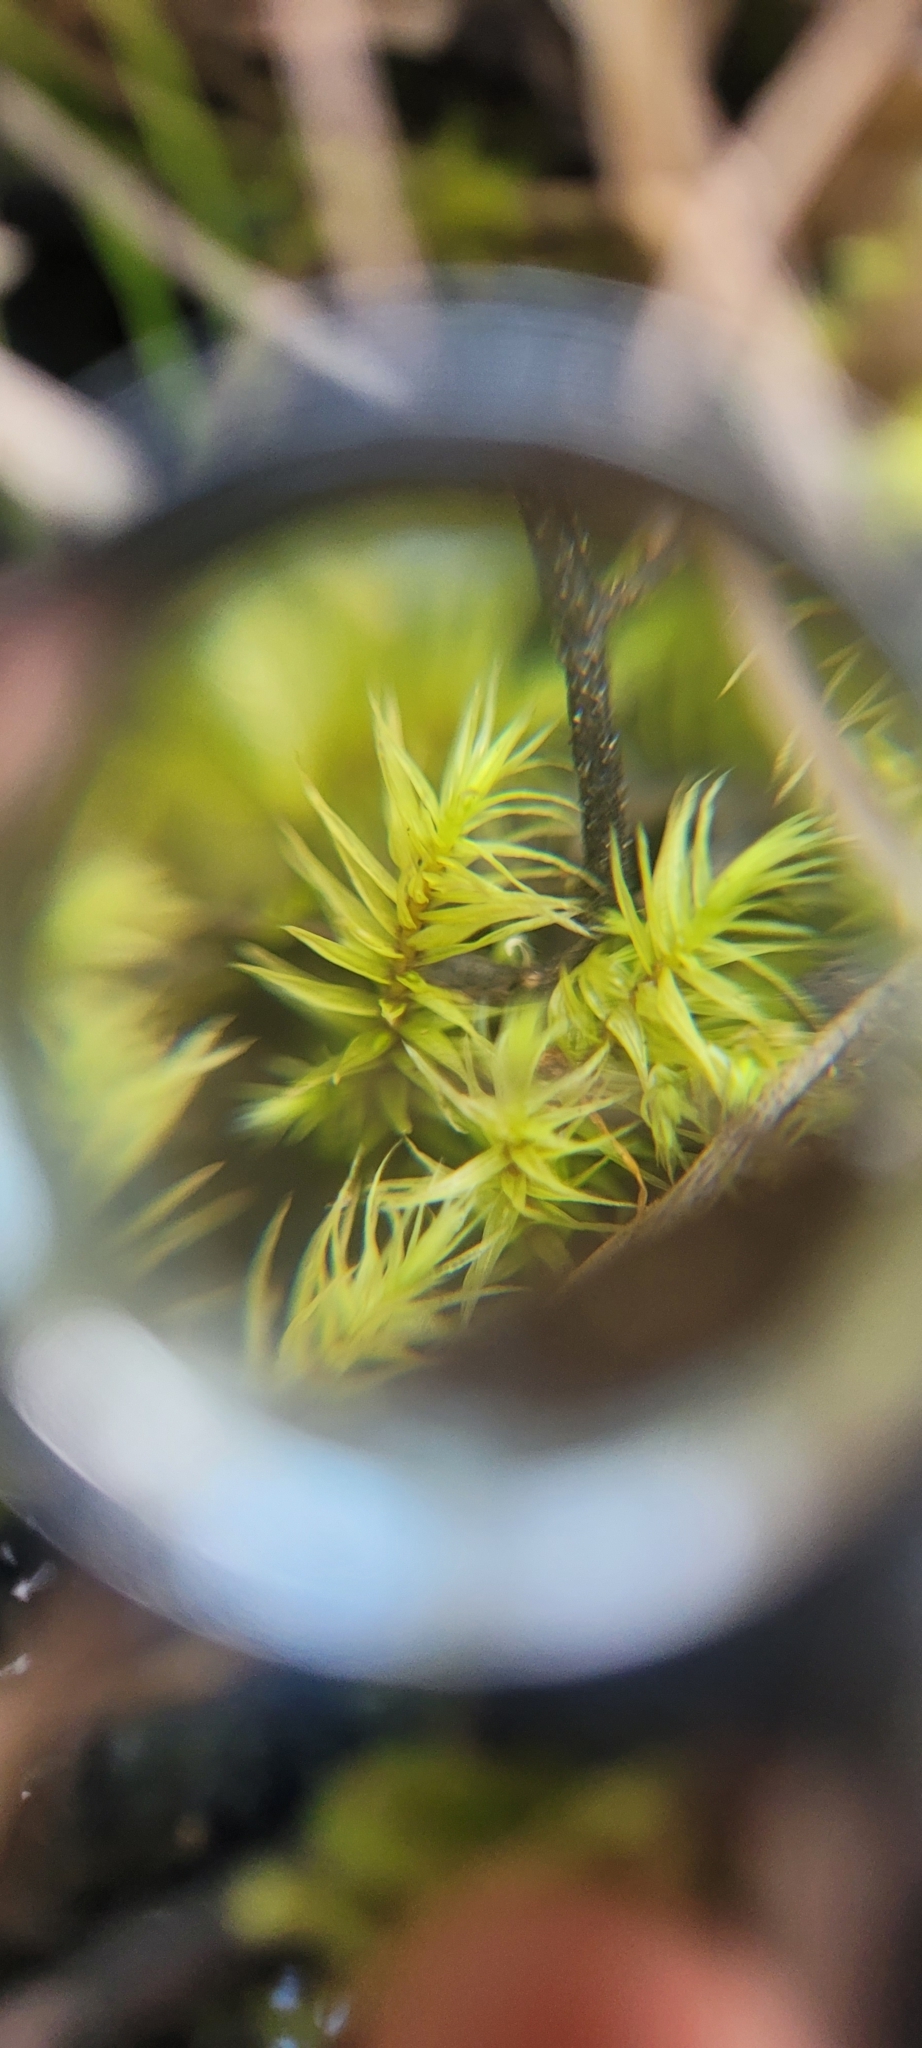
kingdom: Plantae
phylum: Bryophyta
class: Bryopsida
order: Aulacomniales
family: Aulacomniaceae
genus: Aulacomnium
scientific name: Aulacomnium palustre
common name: Bog groove-moss
